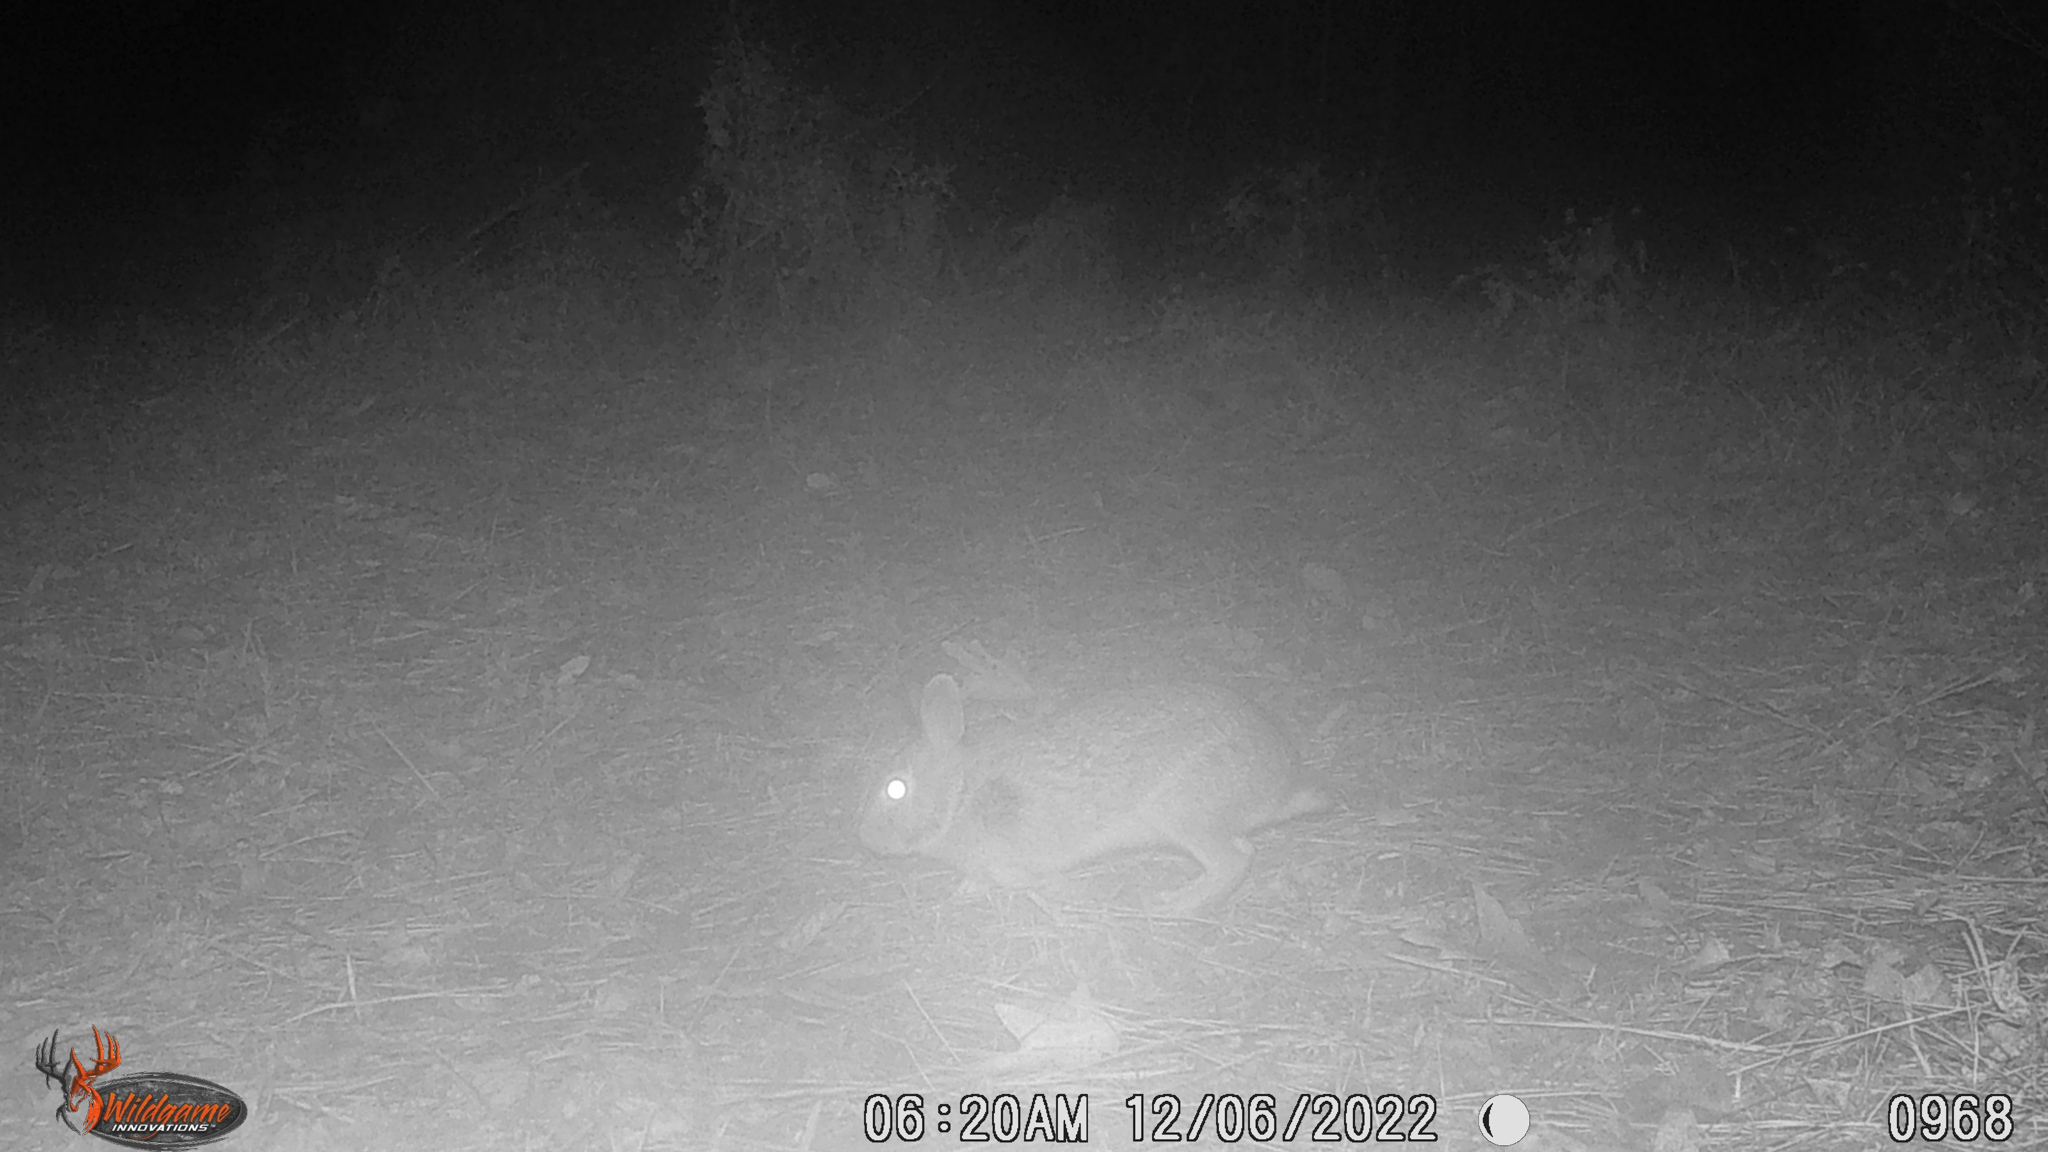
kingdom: Animalia
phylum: Chordata
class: Mammalia
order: Lagomorpha
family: Leporidae
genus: Sylvilagus
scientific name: Sylvilagus floridanus
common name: Eastern cottontail
